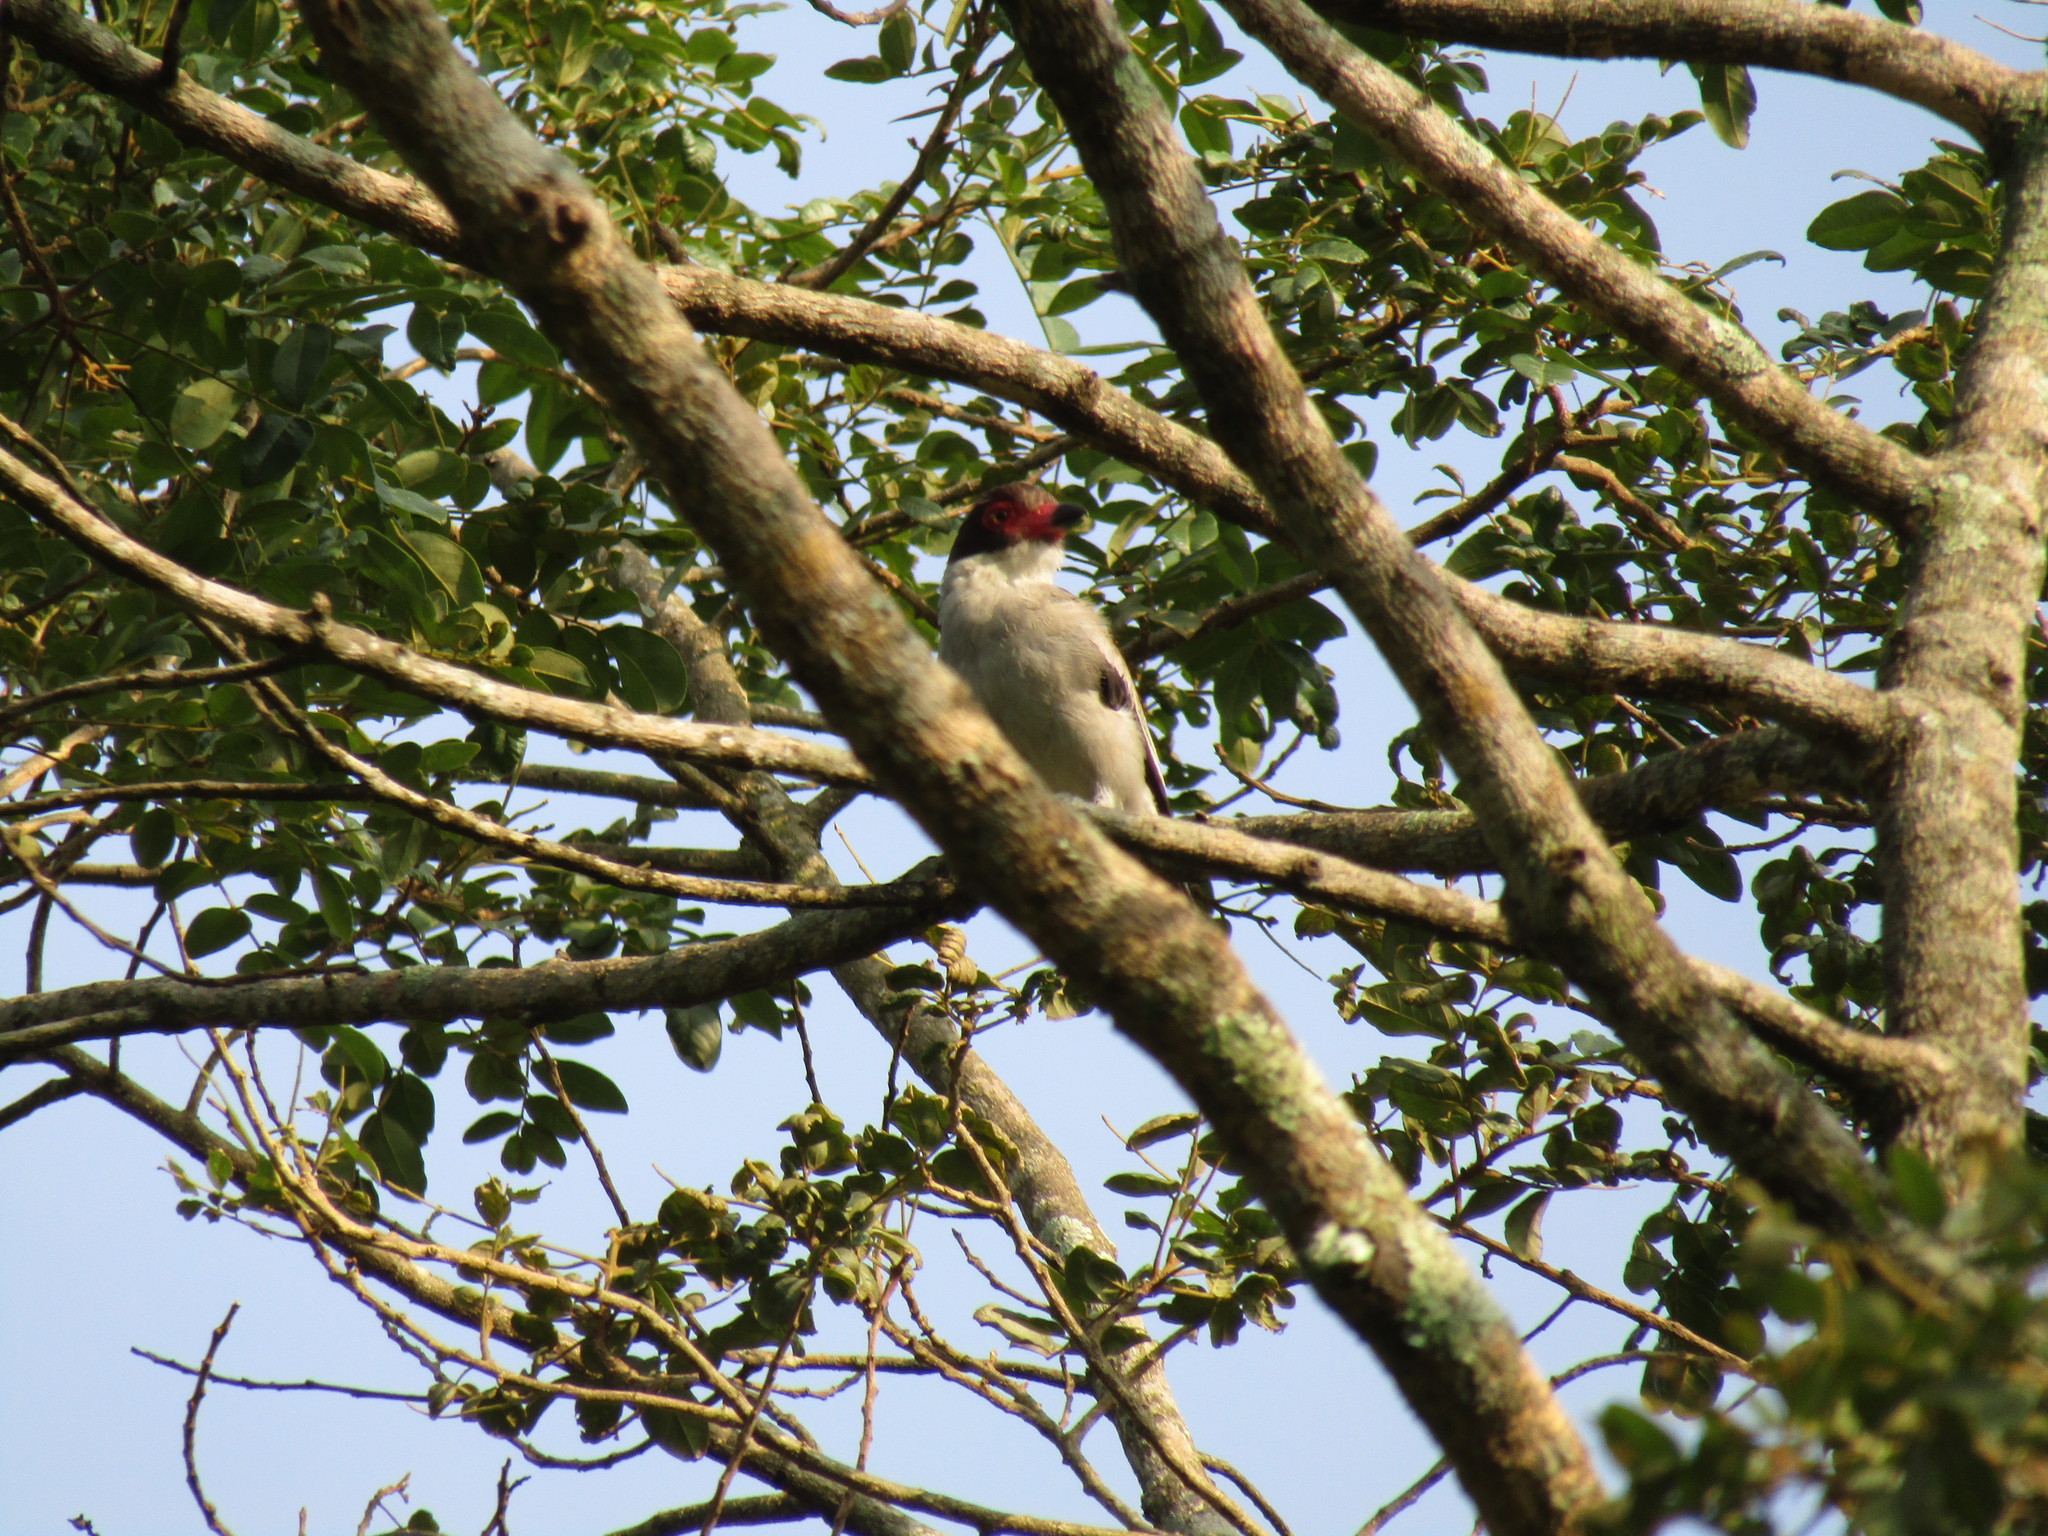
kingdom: Animalia
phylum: Chordata
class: Aves
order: Passeriformes
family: Cotingidae
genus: Tityra
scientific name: Tityra semifasciata
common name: Masked tityra
